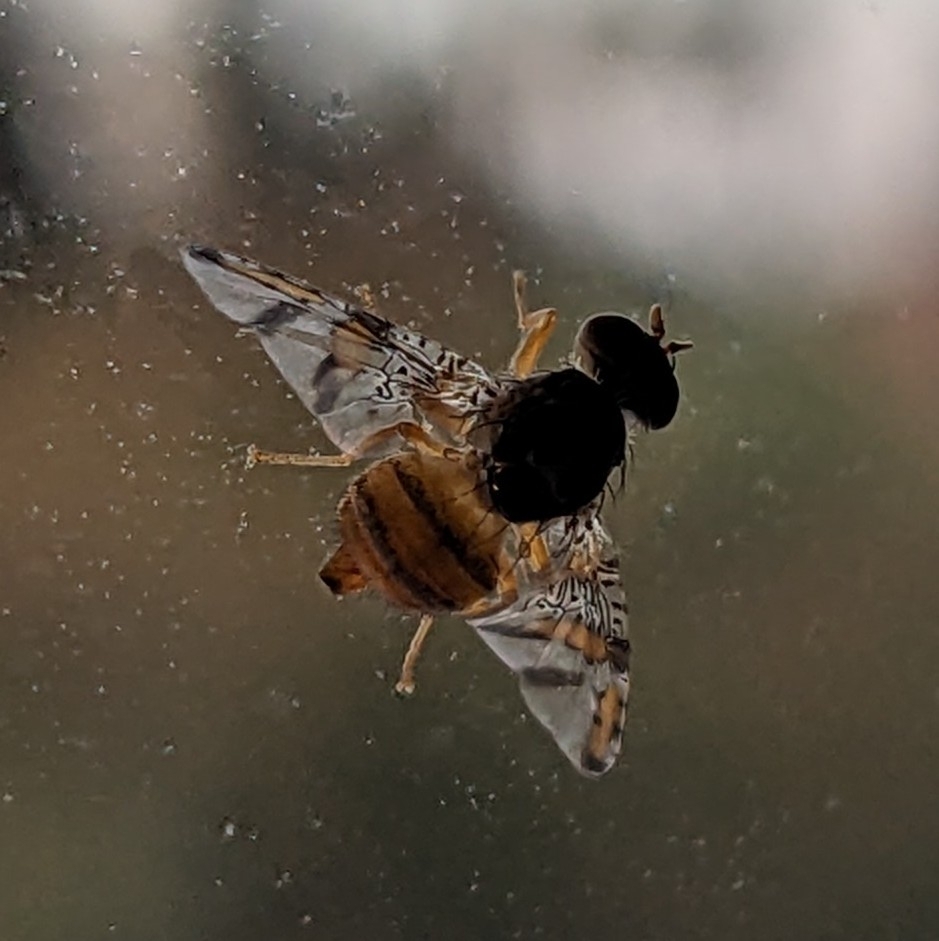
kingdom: Animalia
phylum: Arthropoda
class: Insecta
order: Diptera
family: Tephritidae
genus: Ceratitis
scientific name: Ceratitis capitata
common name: Mediterranean fruit fly
